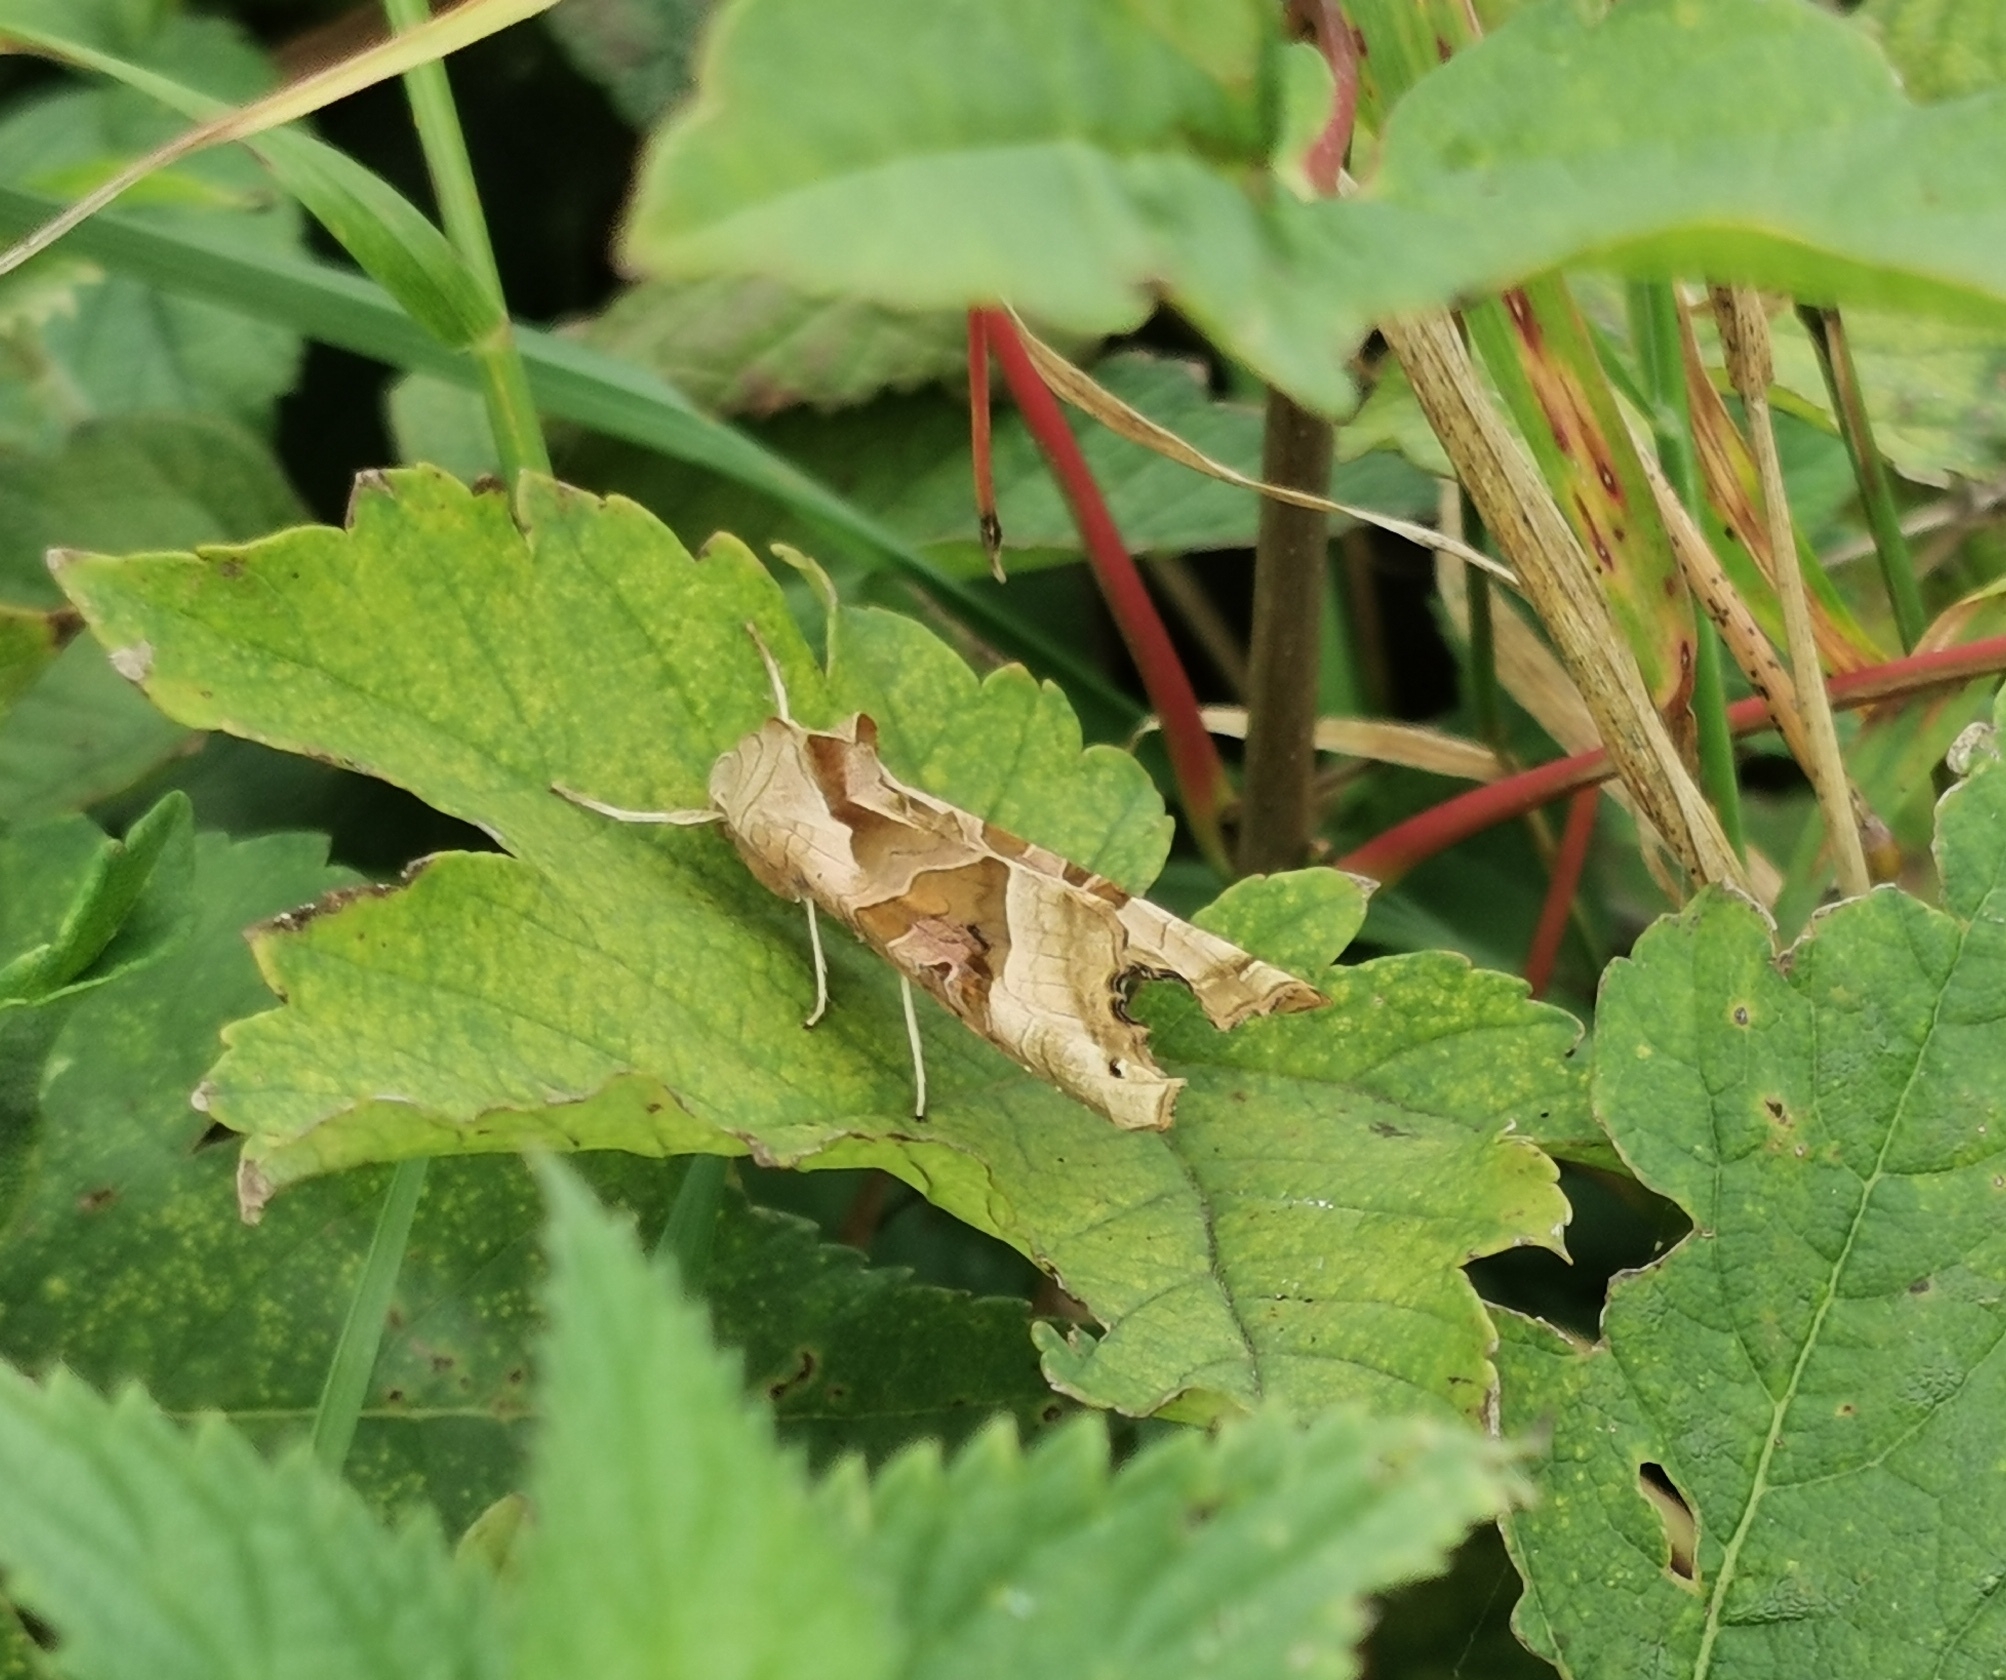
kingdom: Animalia
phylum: Arthropoda
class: Insecta
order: Lepidoptera
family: Noctuidae
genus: Phlogophora
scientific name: Phlogophora meticulosa
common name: Angle shades
